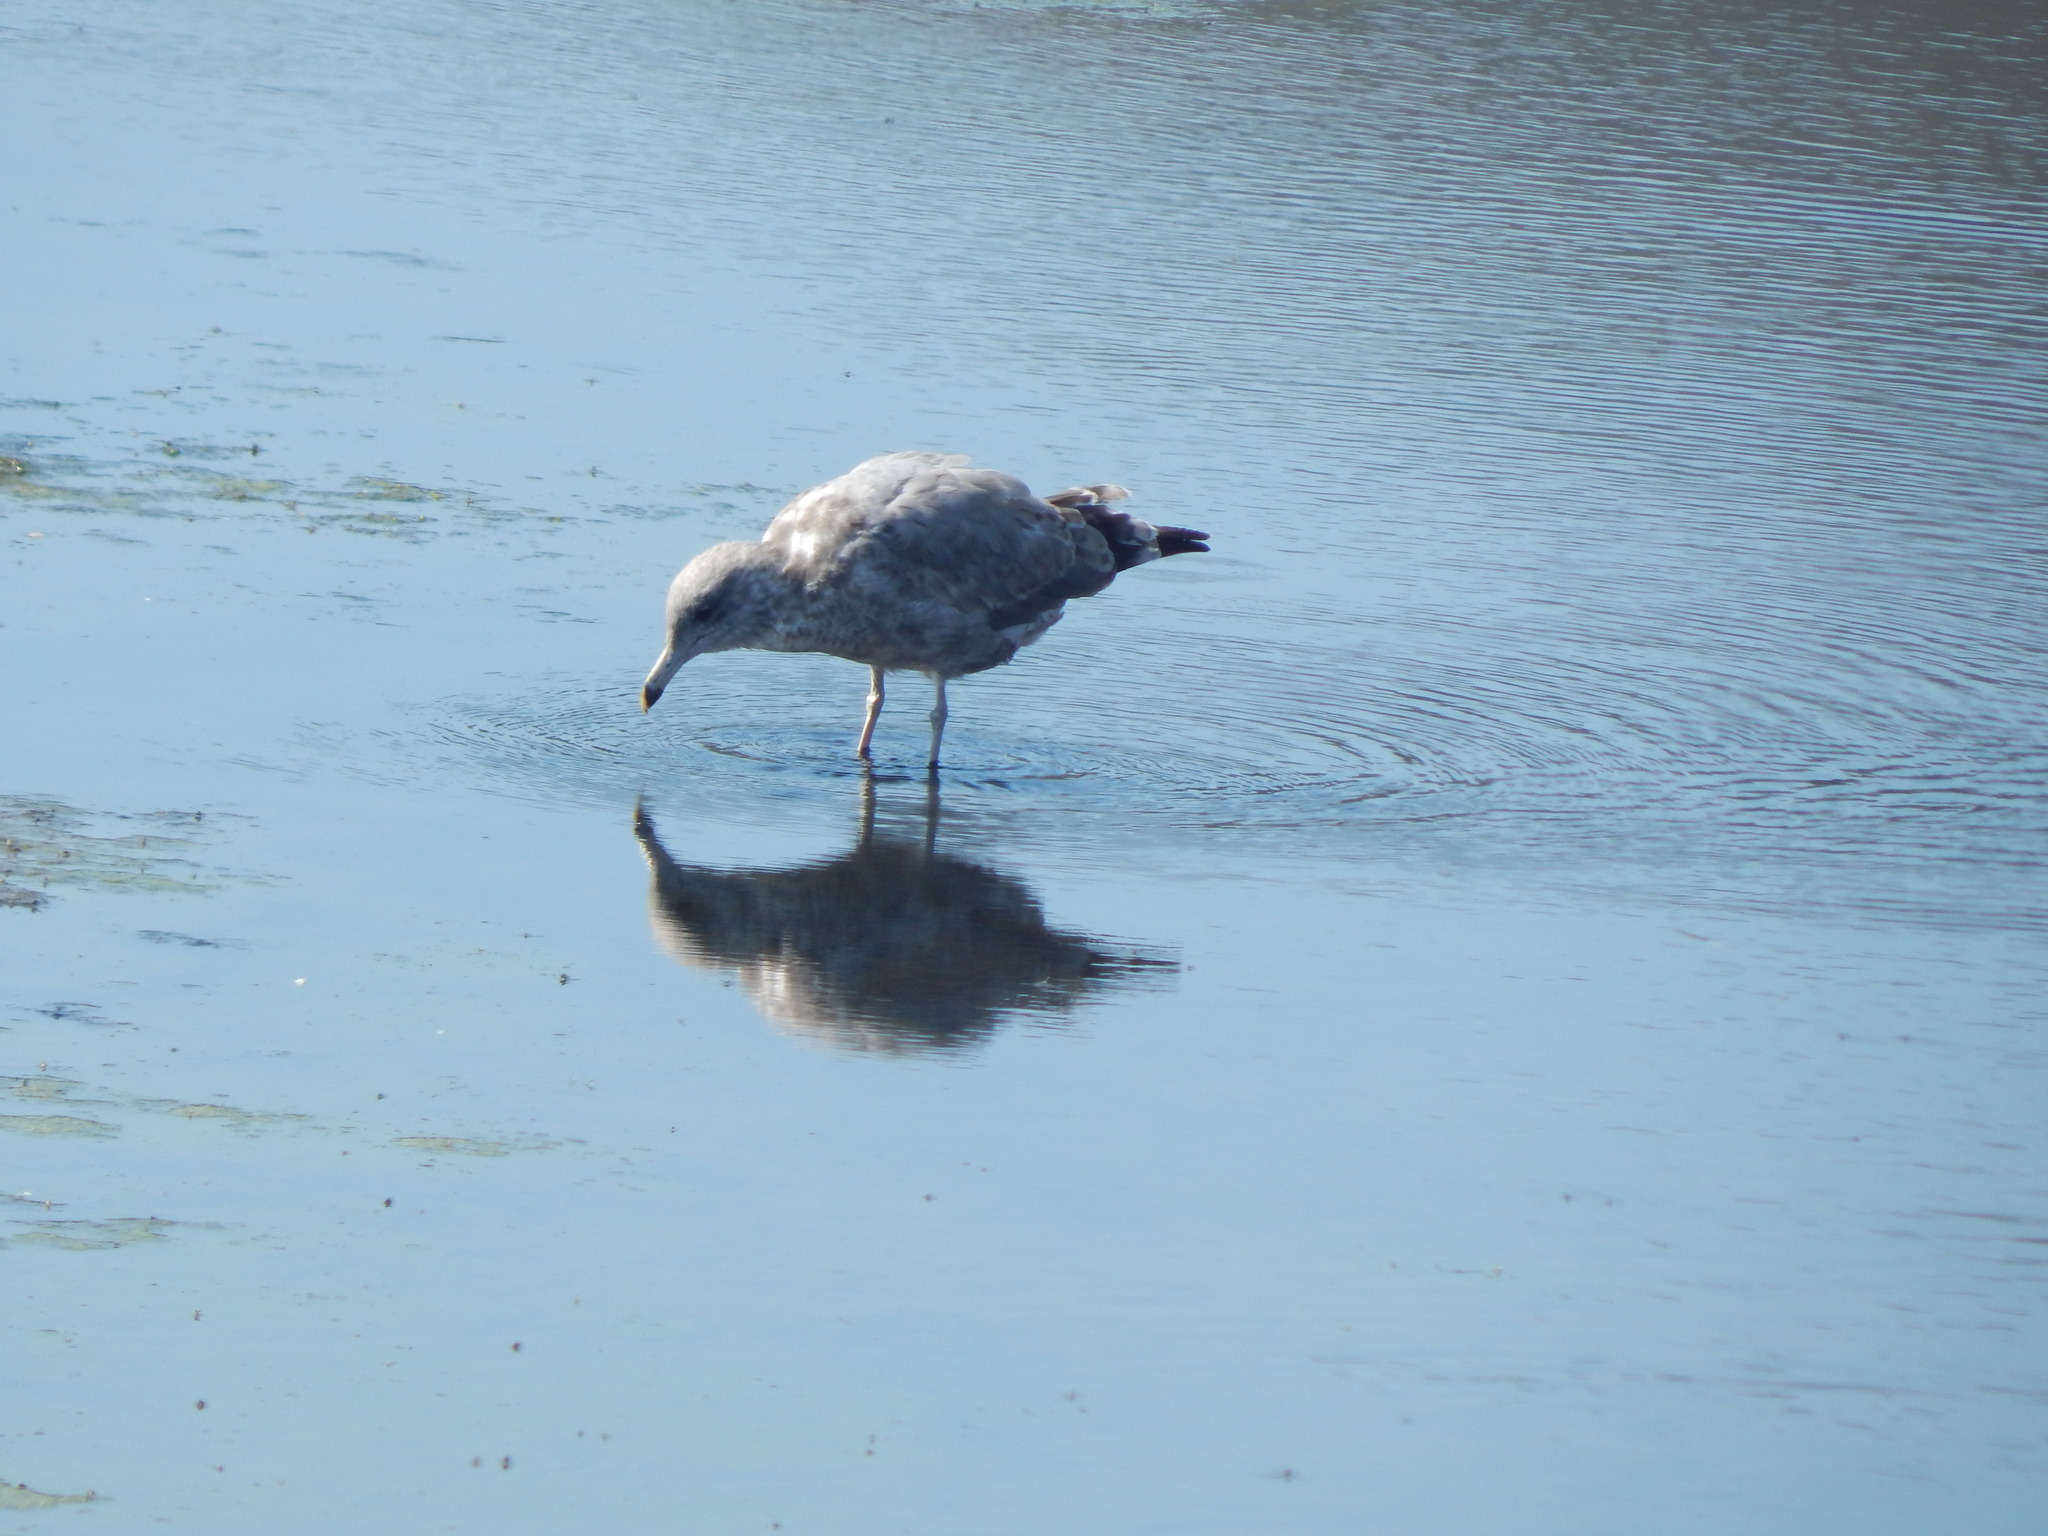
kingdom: Animalia
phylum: Chordata
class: Aves
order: Charadriiformes
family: Laridae
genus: Larus
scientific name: Larus californicus
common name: California gull
